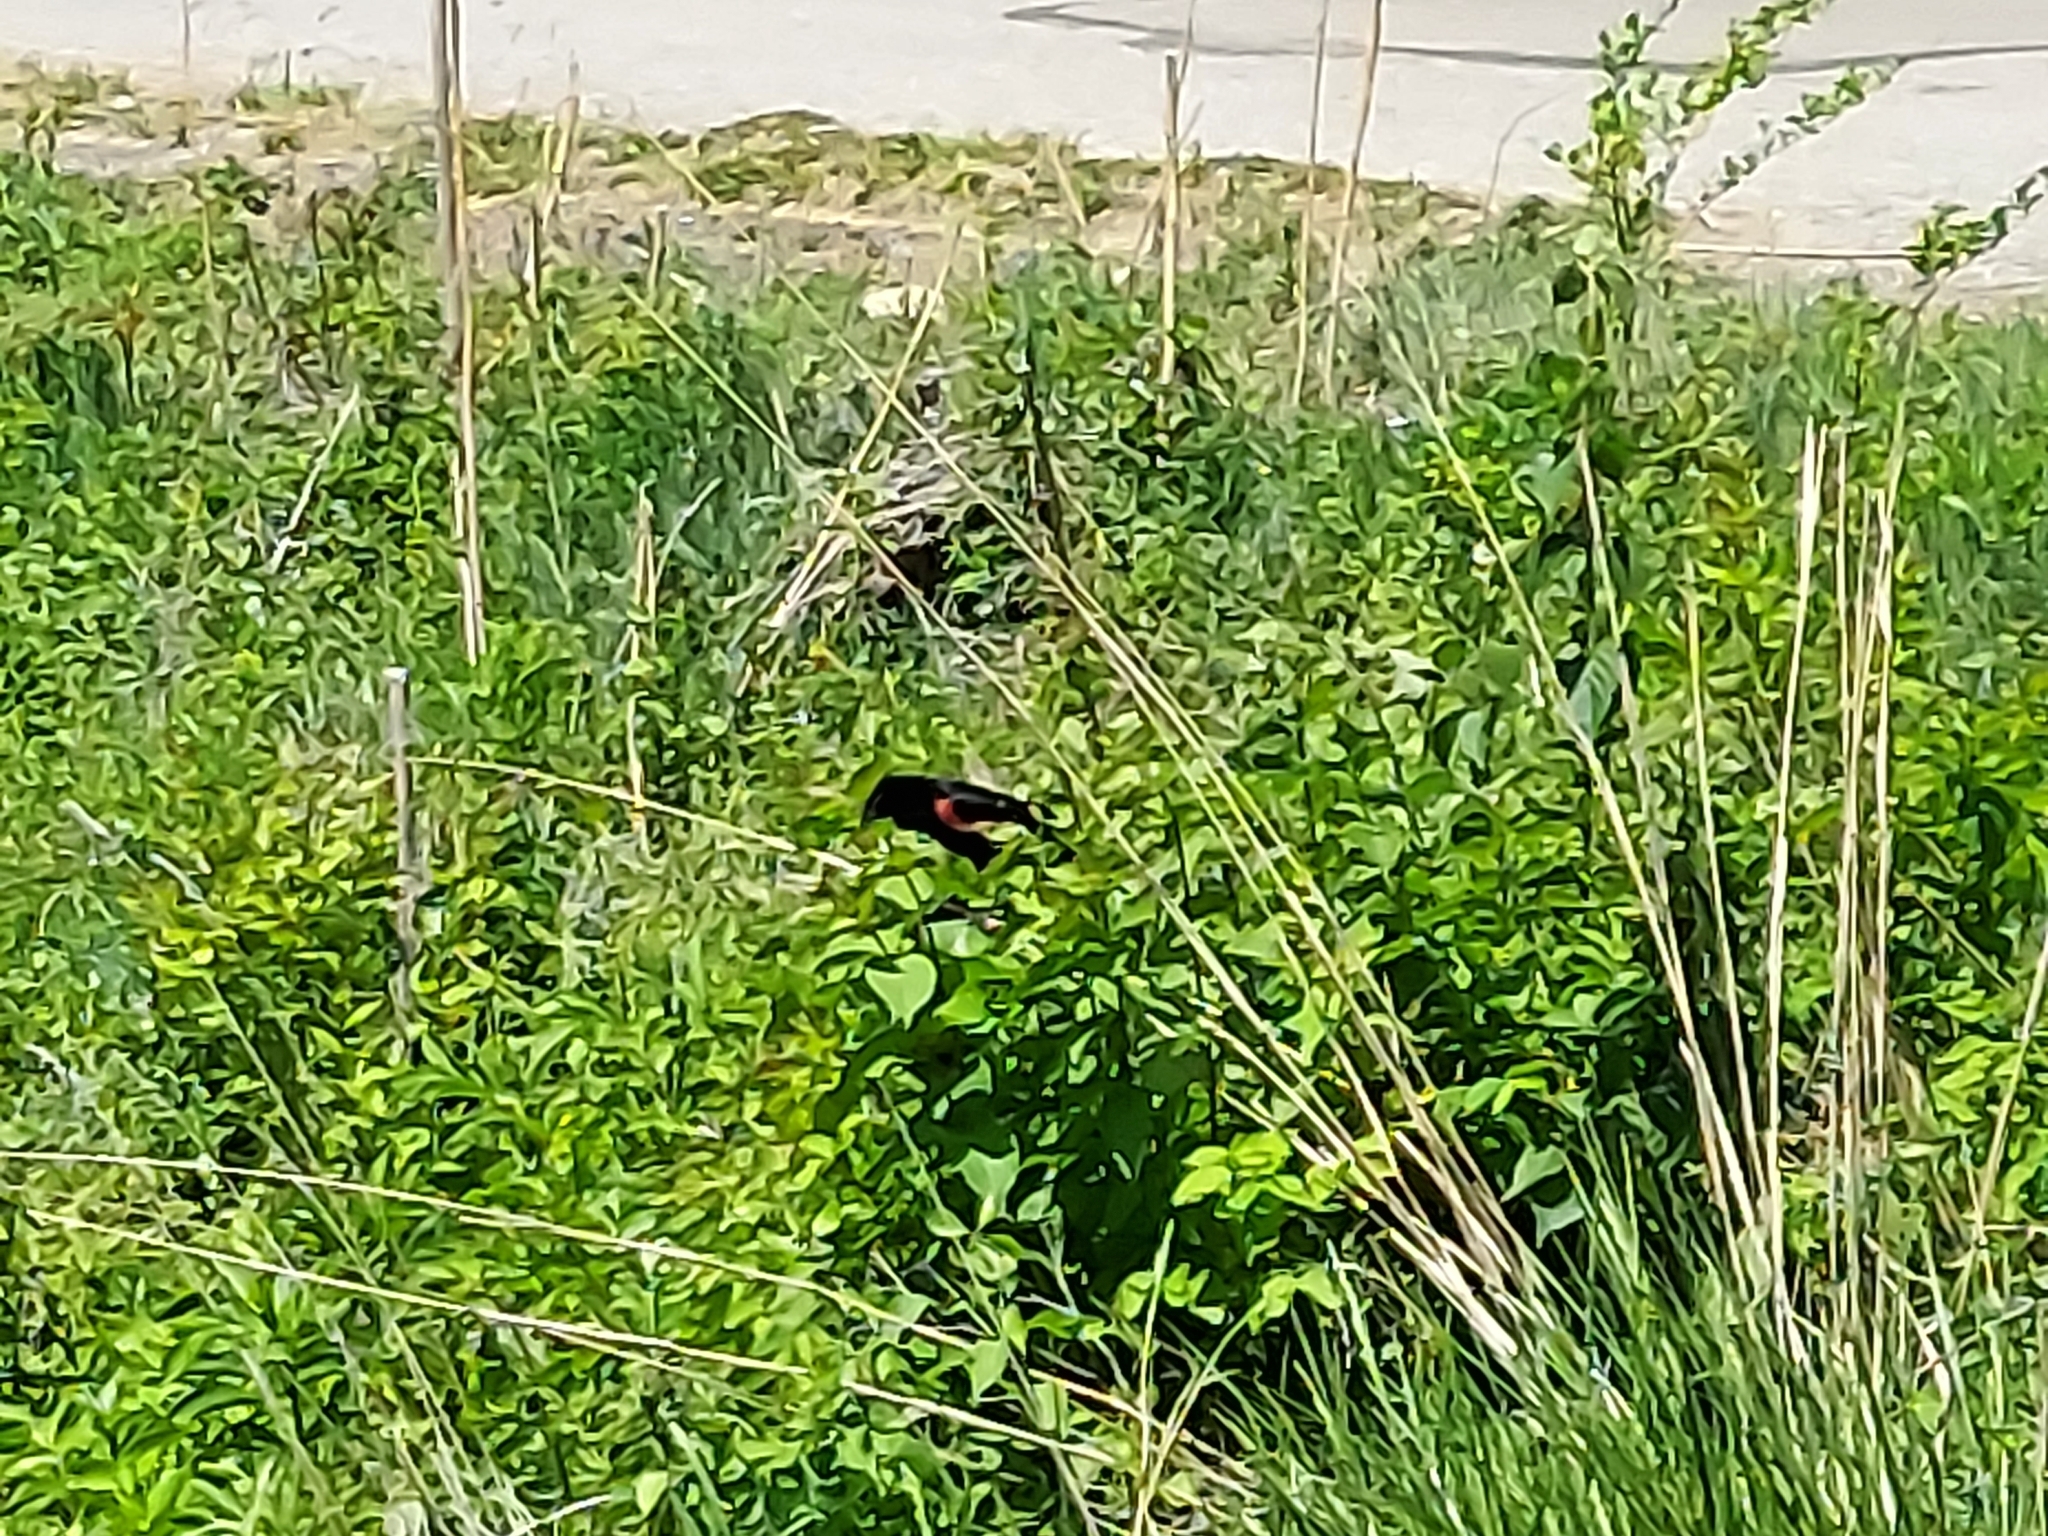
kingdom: Animalia
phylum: Chordata
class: Aves
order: Passeriformes
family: Icteridae
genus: Agelaius
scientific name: Agelaius phoeniceus
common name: Red-winged blackbird
